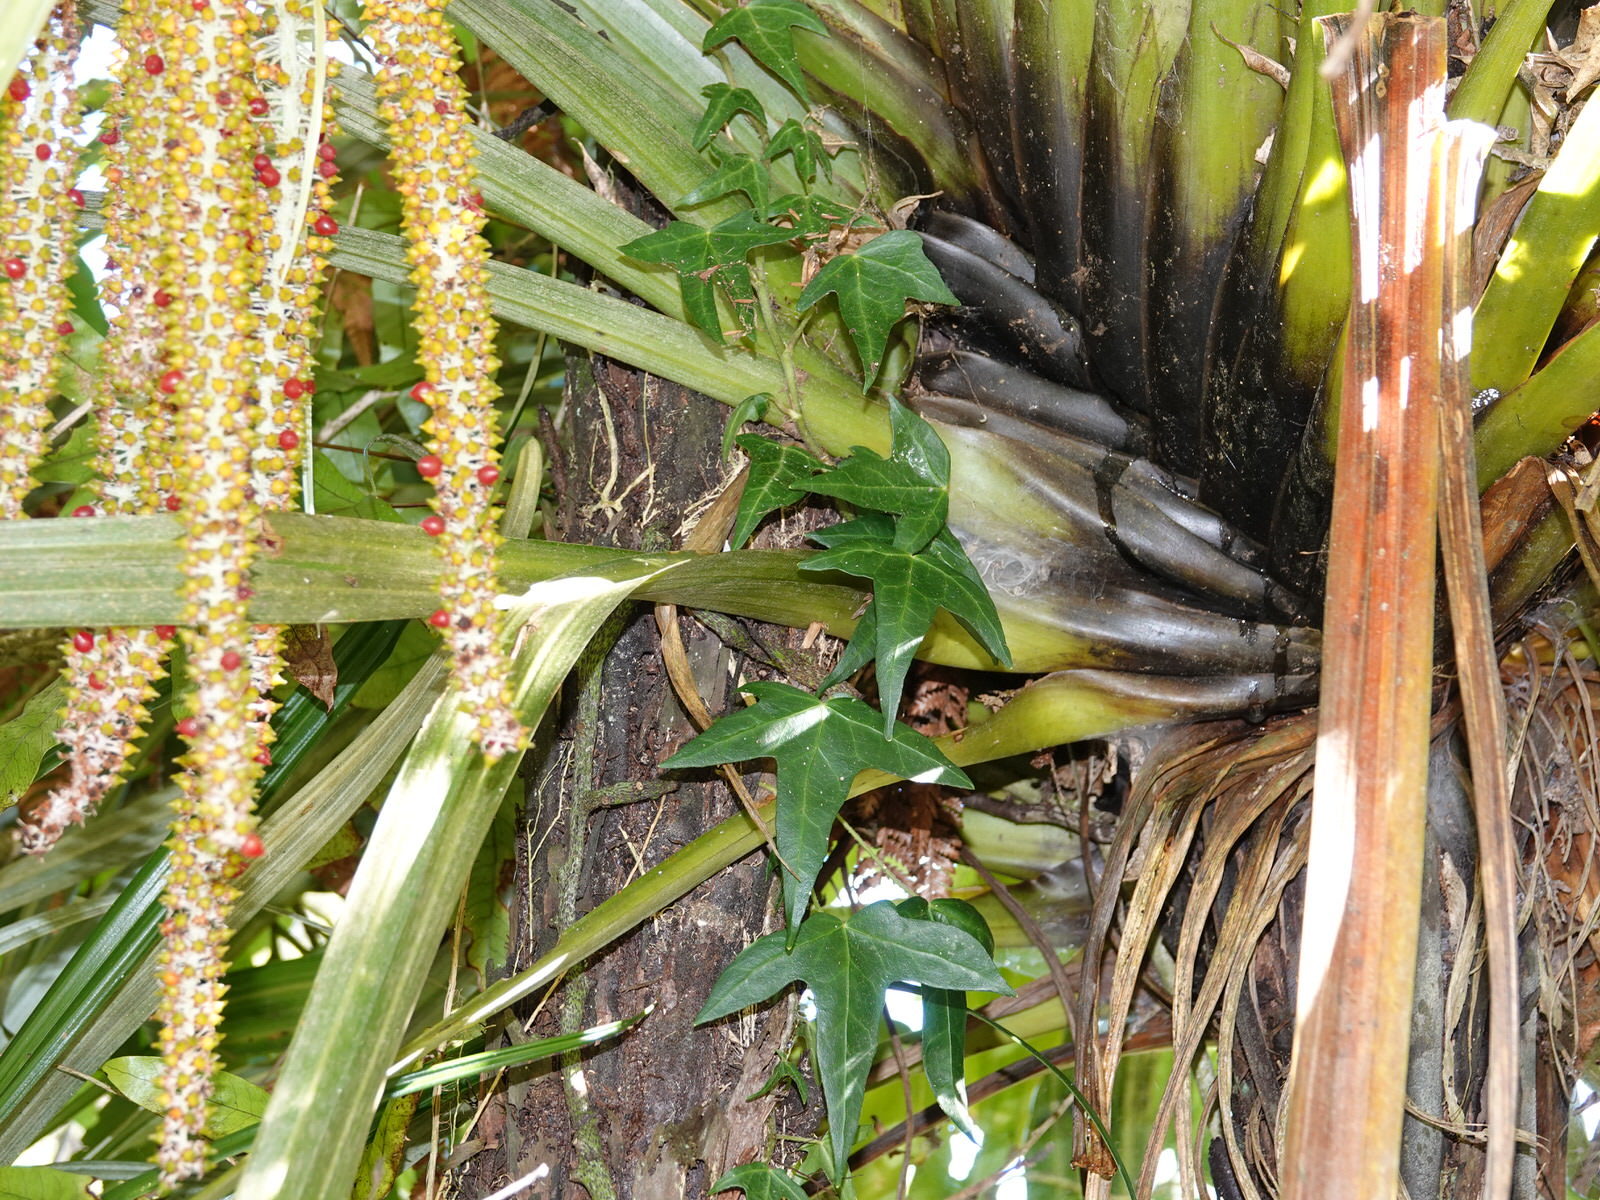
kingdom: Plantae
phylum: Tracheophyta
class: Magnoliopsida
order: Apiales
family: Araliaceae
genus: Hedera
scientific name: Hedera helix
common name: Ivy
